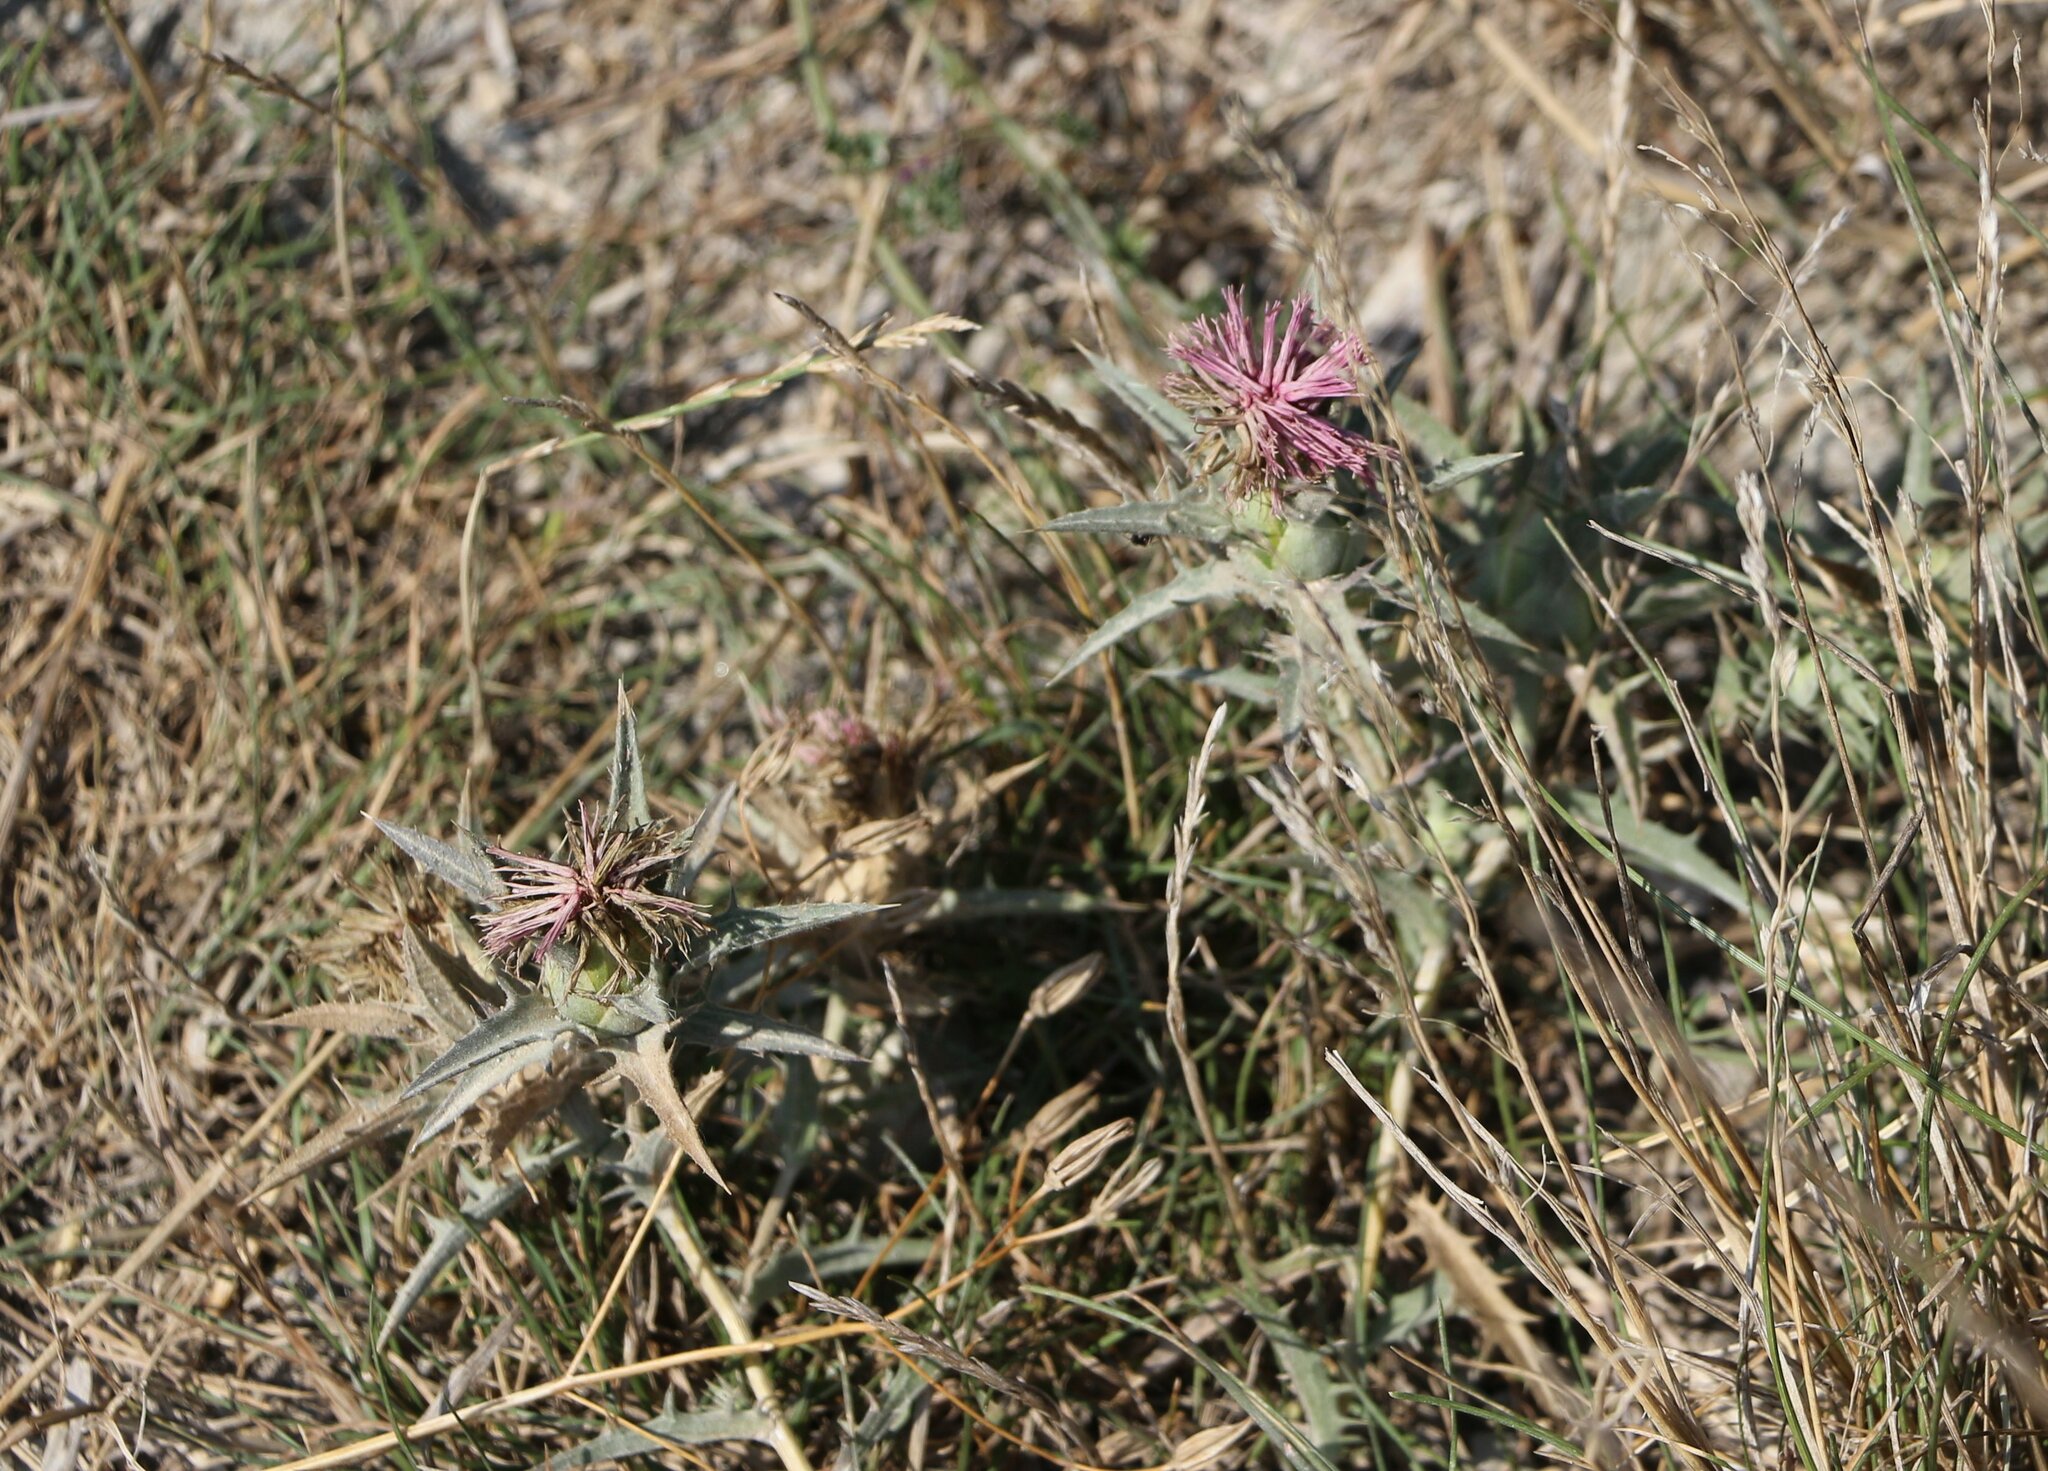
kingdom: Plantae
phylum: Tracheophyta
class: Magnoliopsida
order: Asterales
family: Asteraceae
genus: Carthamus
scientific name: Carthamus glaucus
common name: Mediterranean thistle
